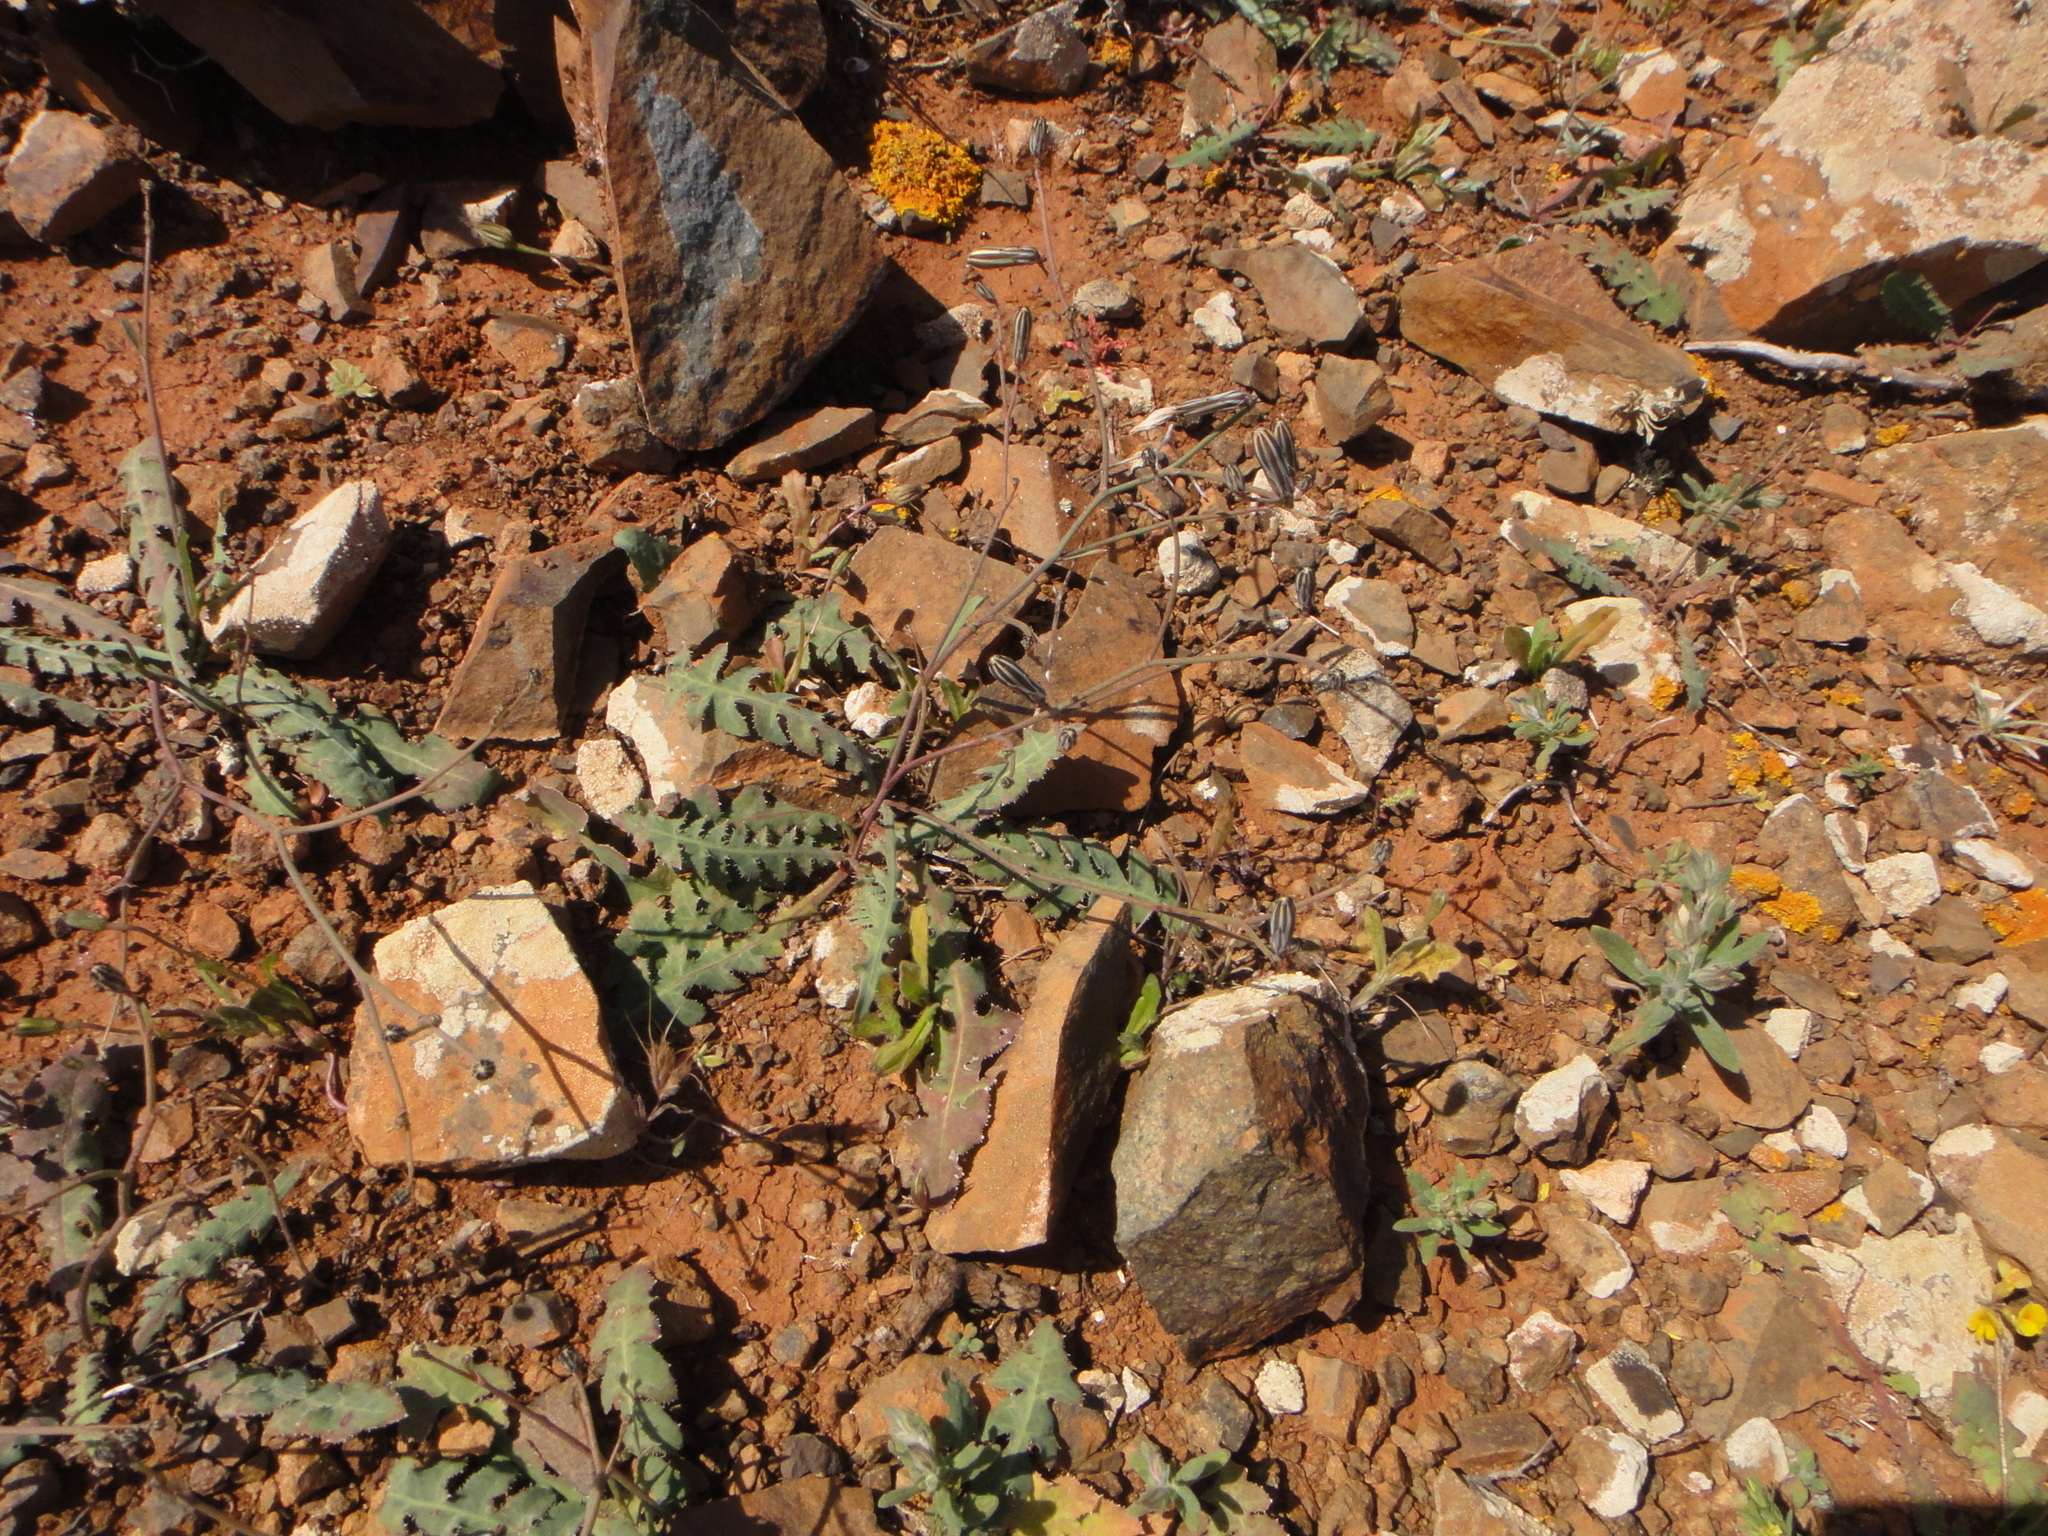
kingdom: Plantae
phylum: Tracheophyta
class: Magnoliopsida
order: Asterales
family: Asteraceae
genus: Launaea
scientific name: Launaea nudicaulis
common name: Naked launaea
